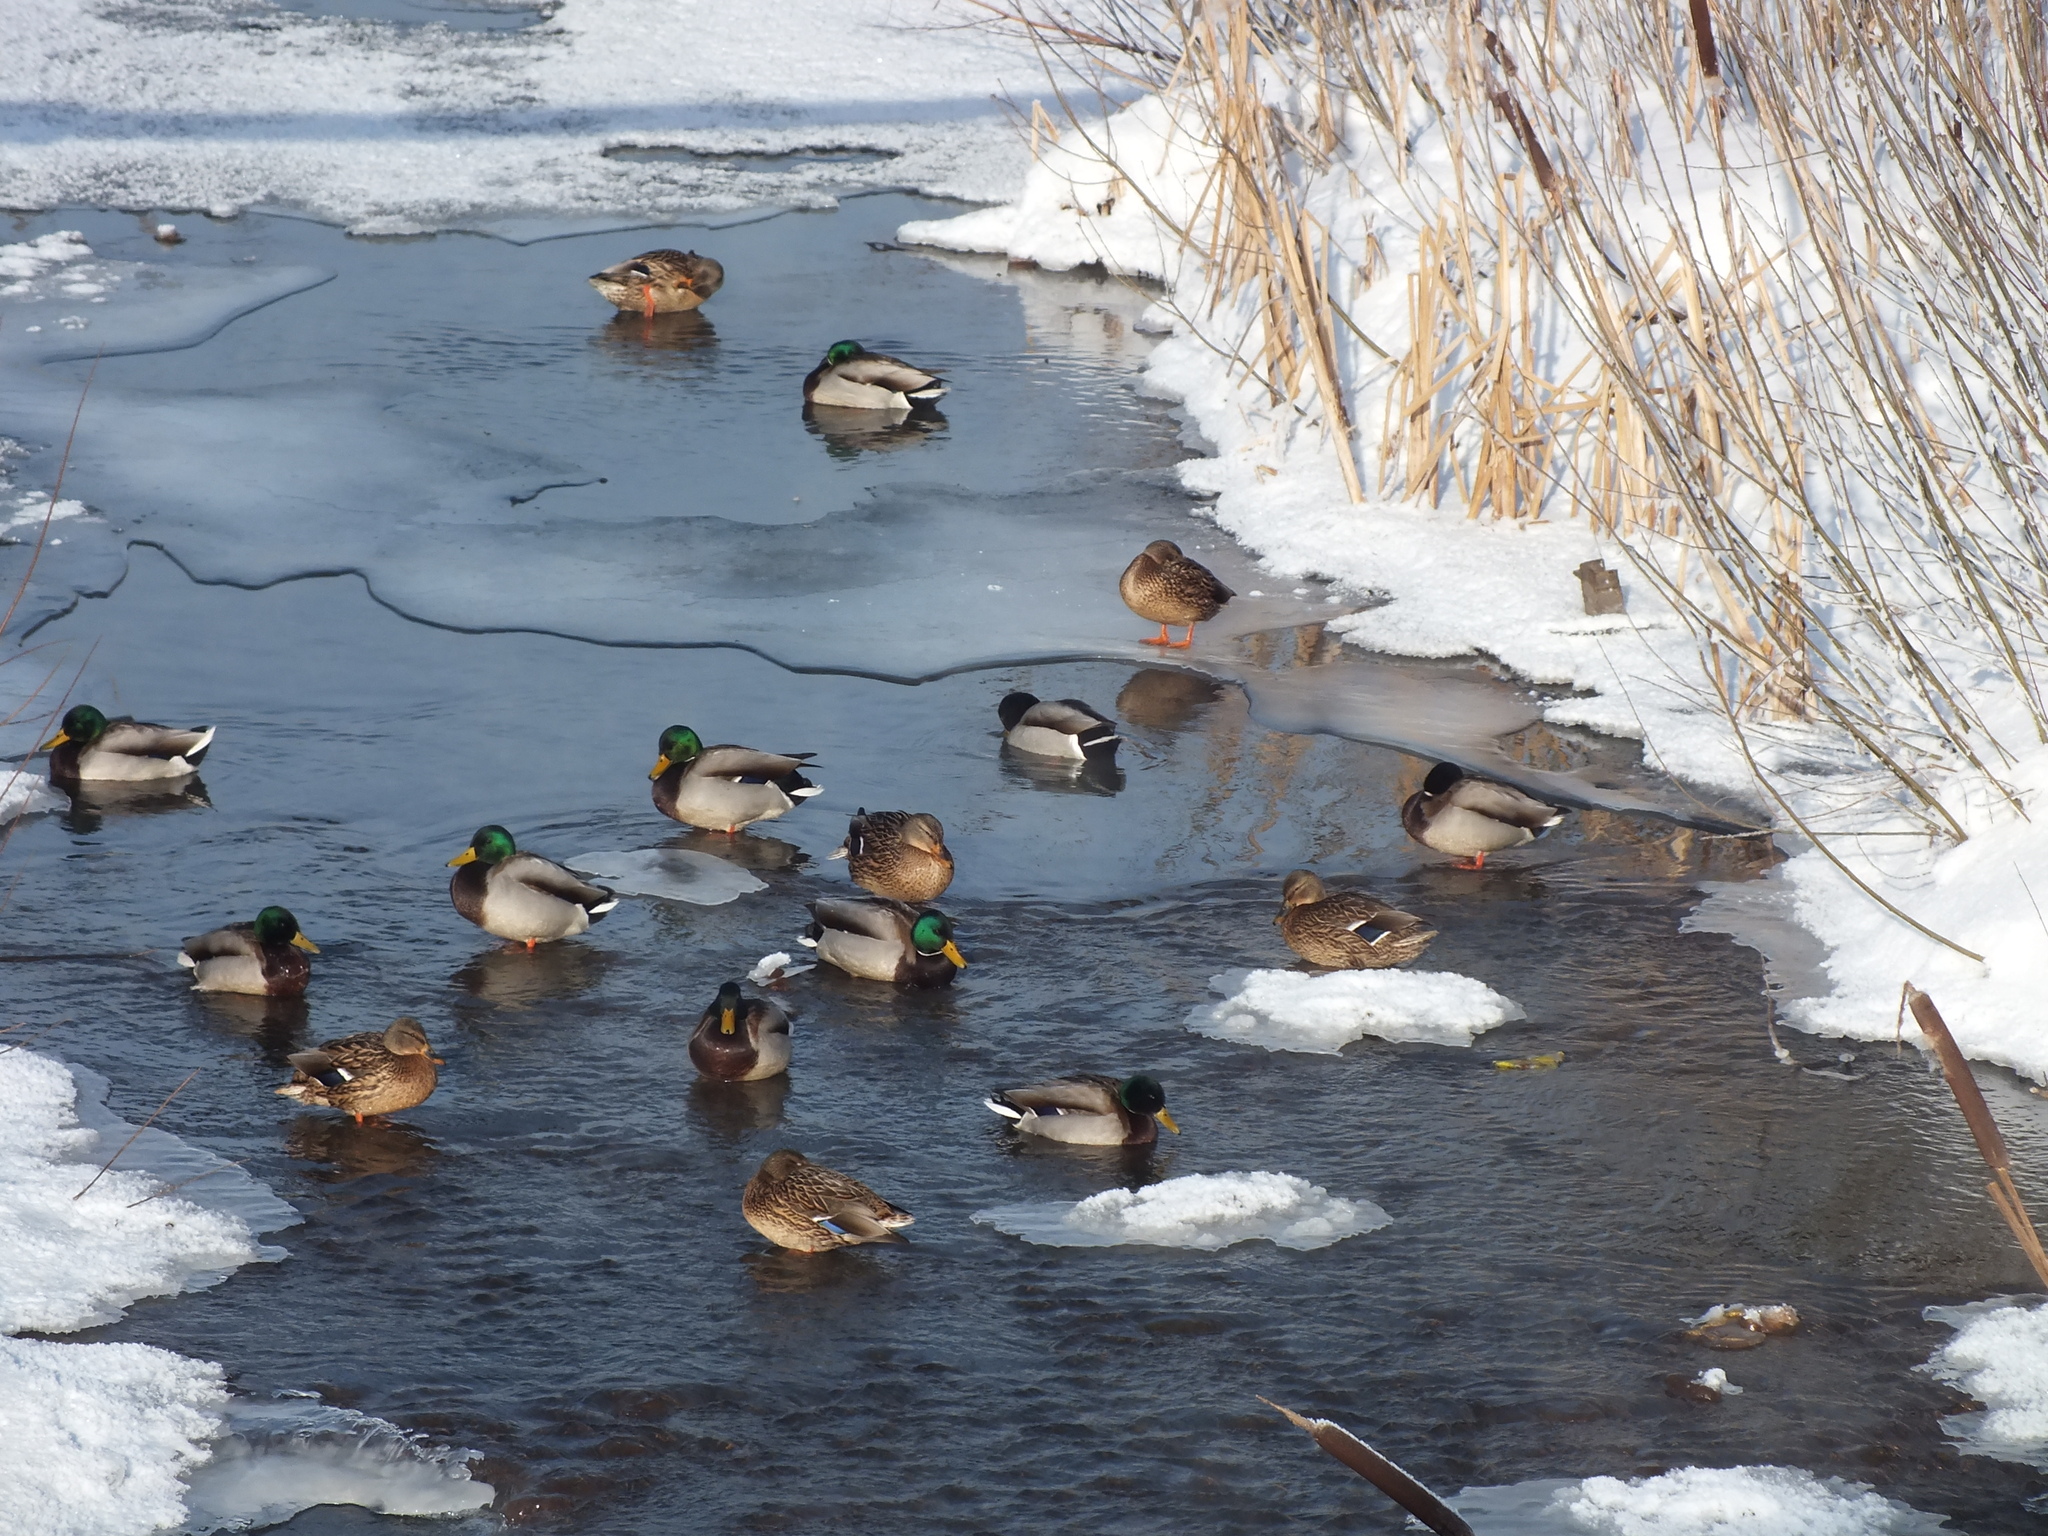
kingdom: Animalia
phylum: Chordata
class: Aves
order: Anseriformes
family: Anatidae
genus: Anas
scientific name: Anas platyrhynchos
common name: Mallard
